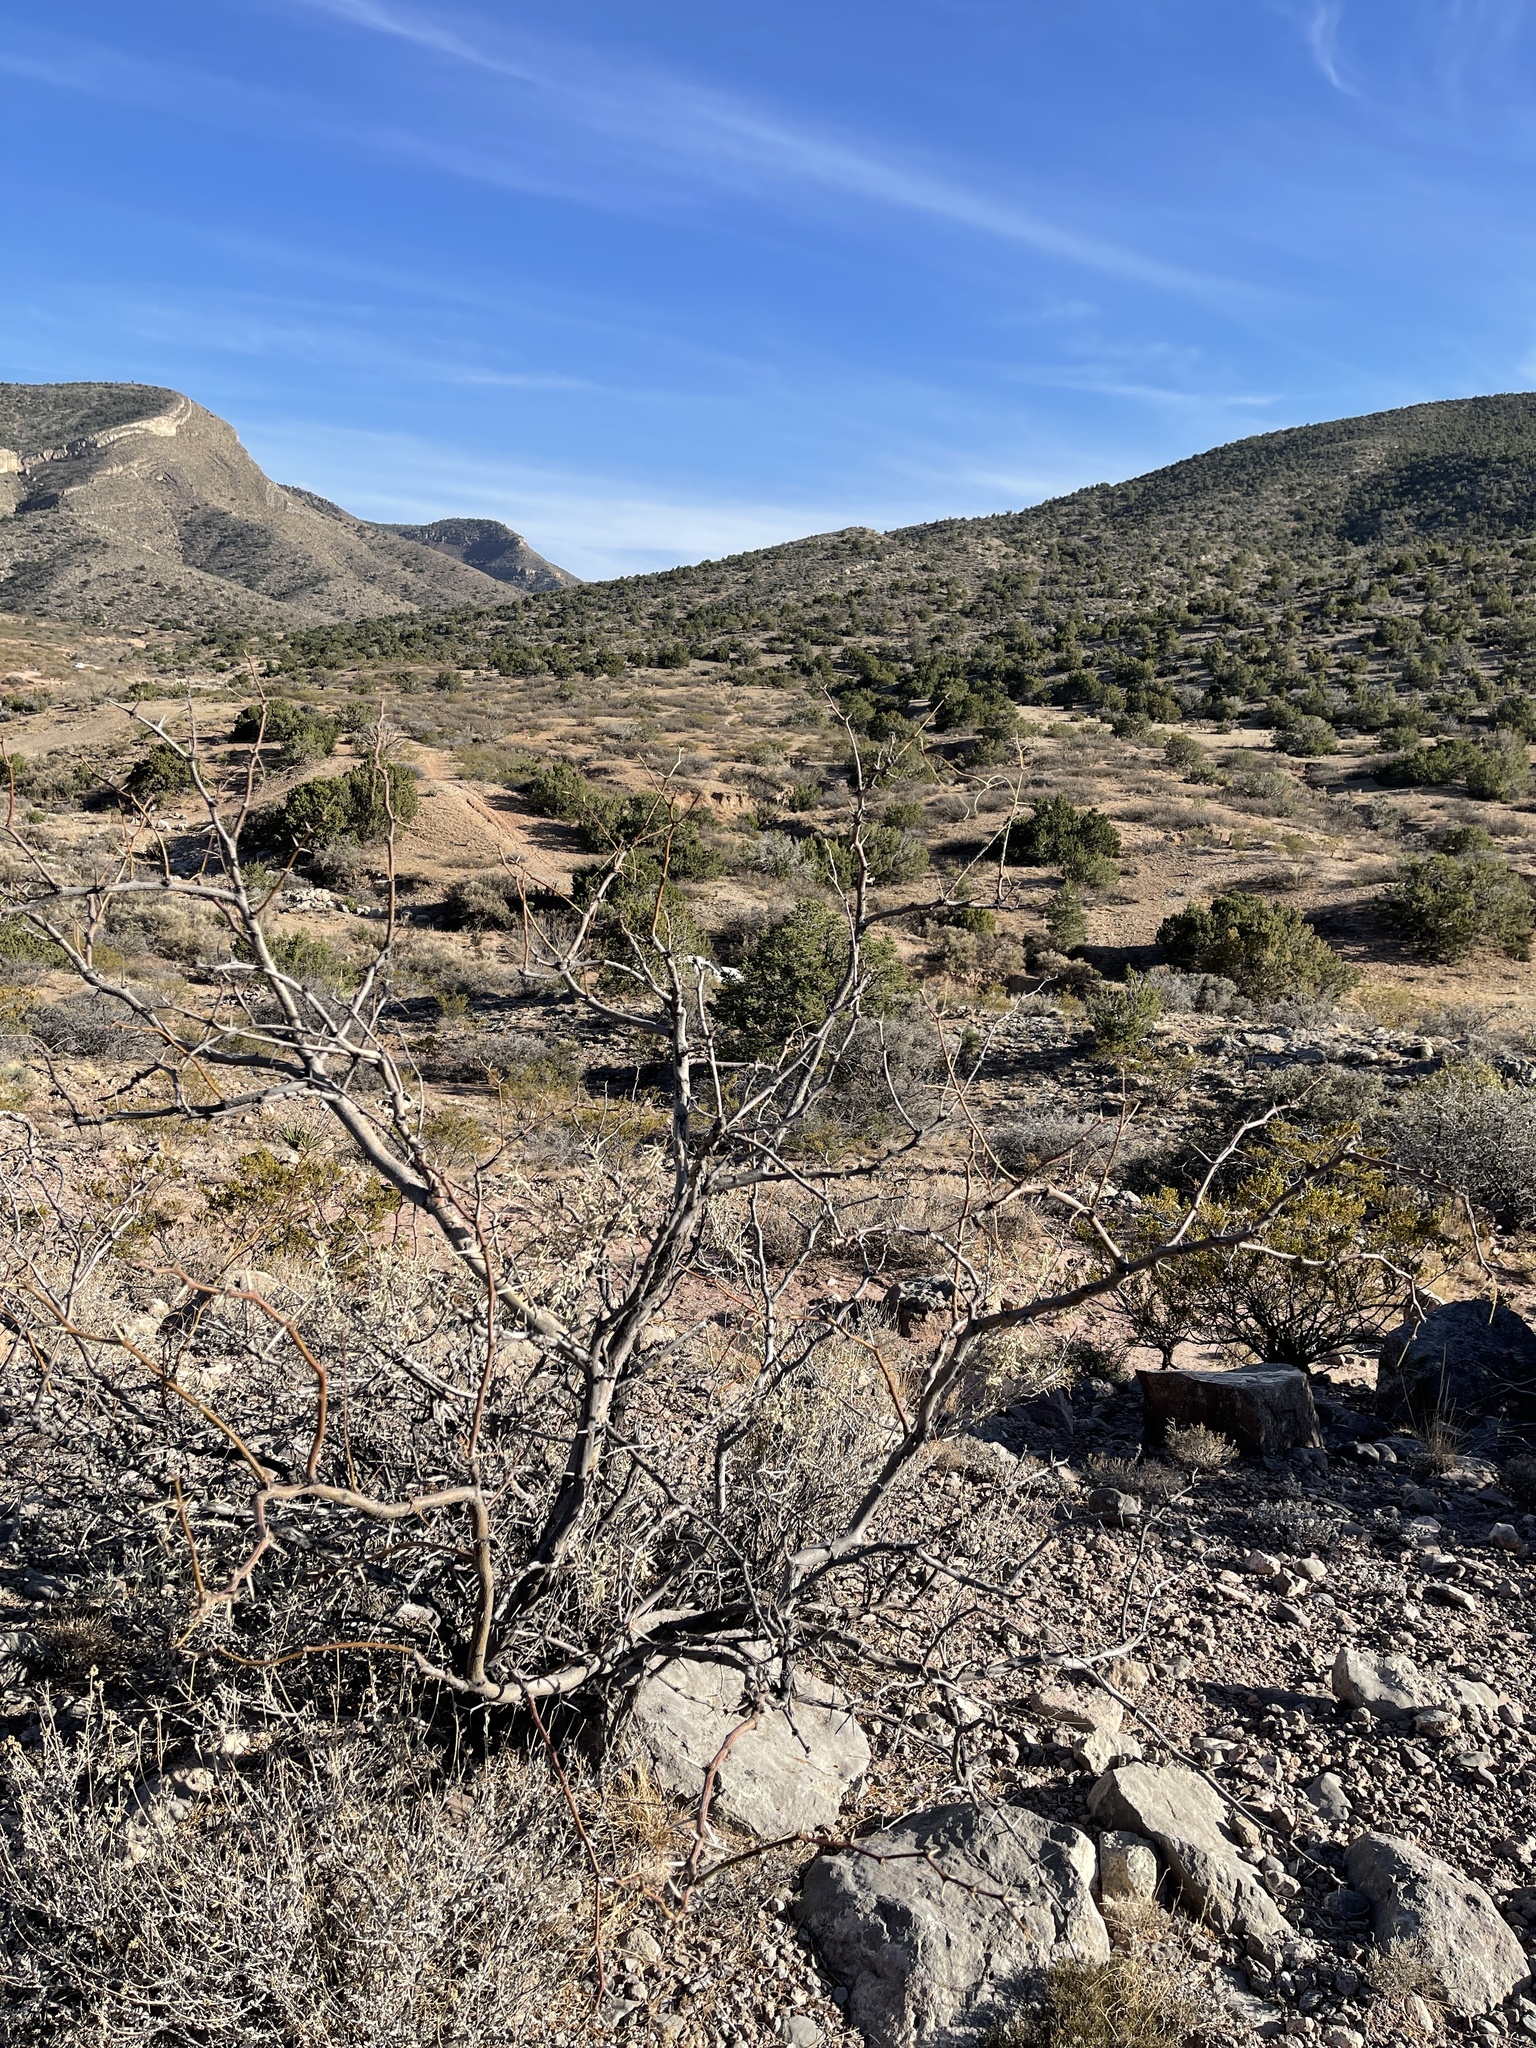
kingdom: Plantae
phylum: Tracheophyta
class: Magnoliopsida
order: Fabales
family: Fabaceae
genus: Prosopis
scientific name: Prosopis glandulosa
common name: Honey mesquite
